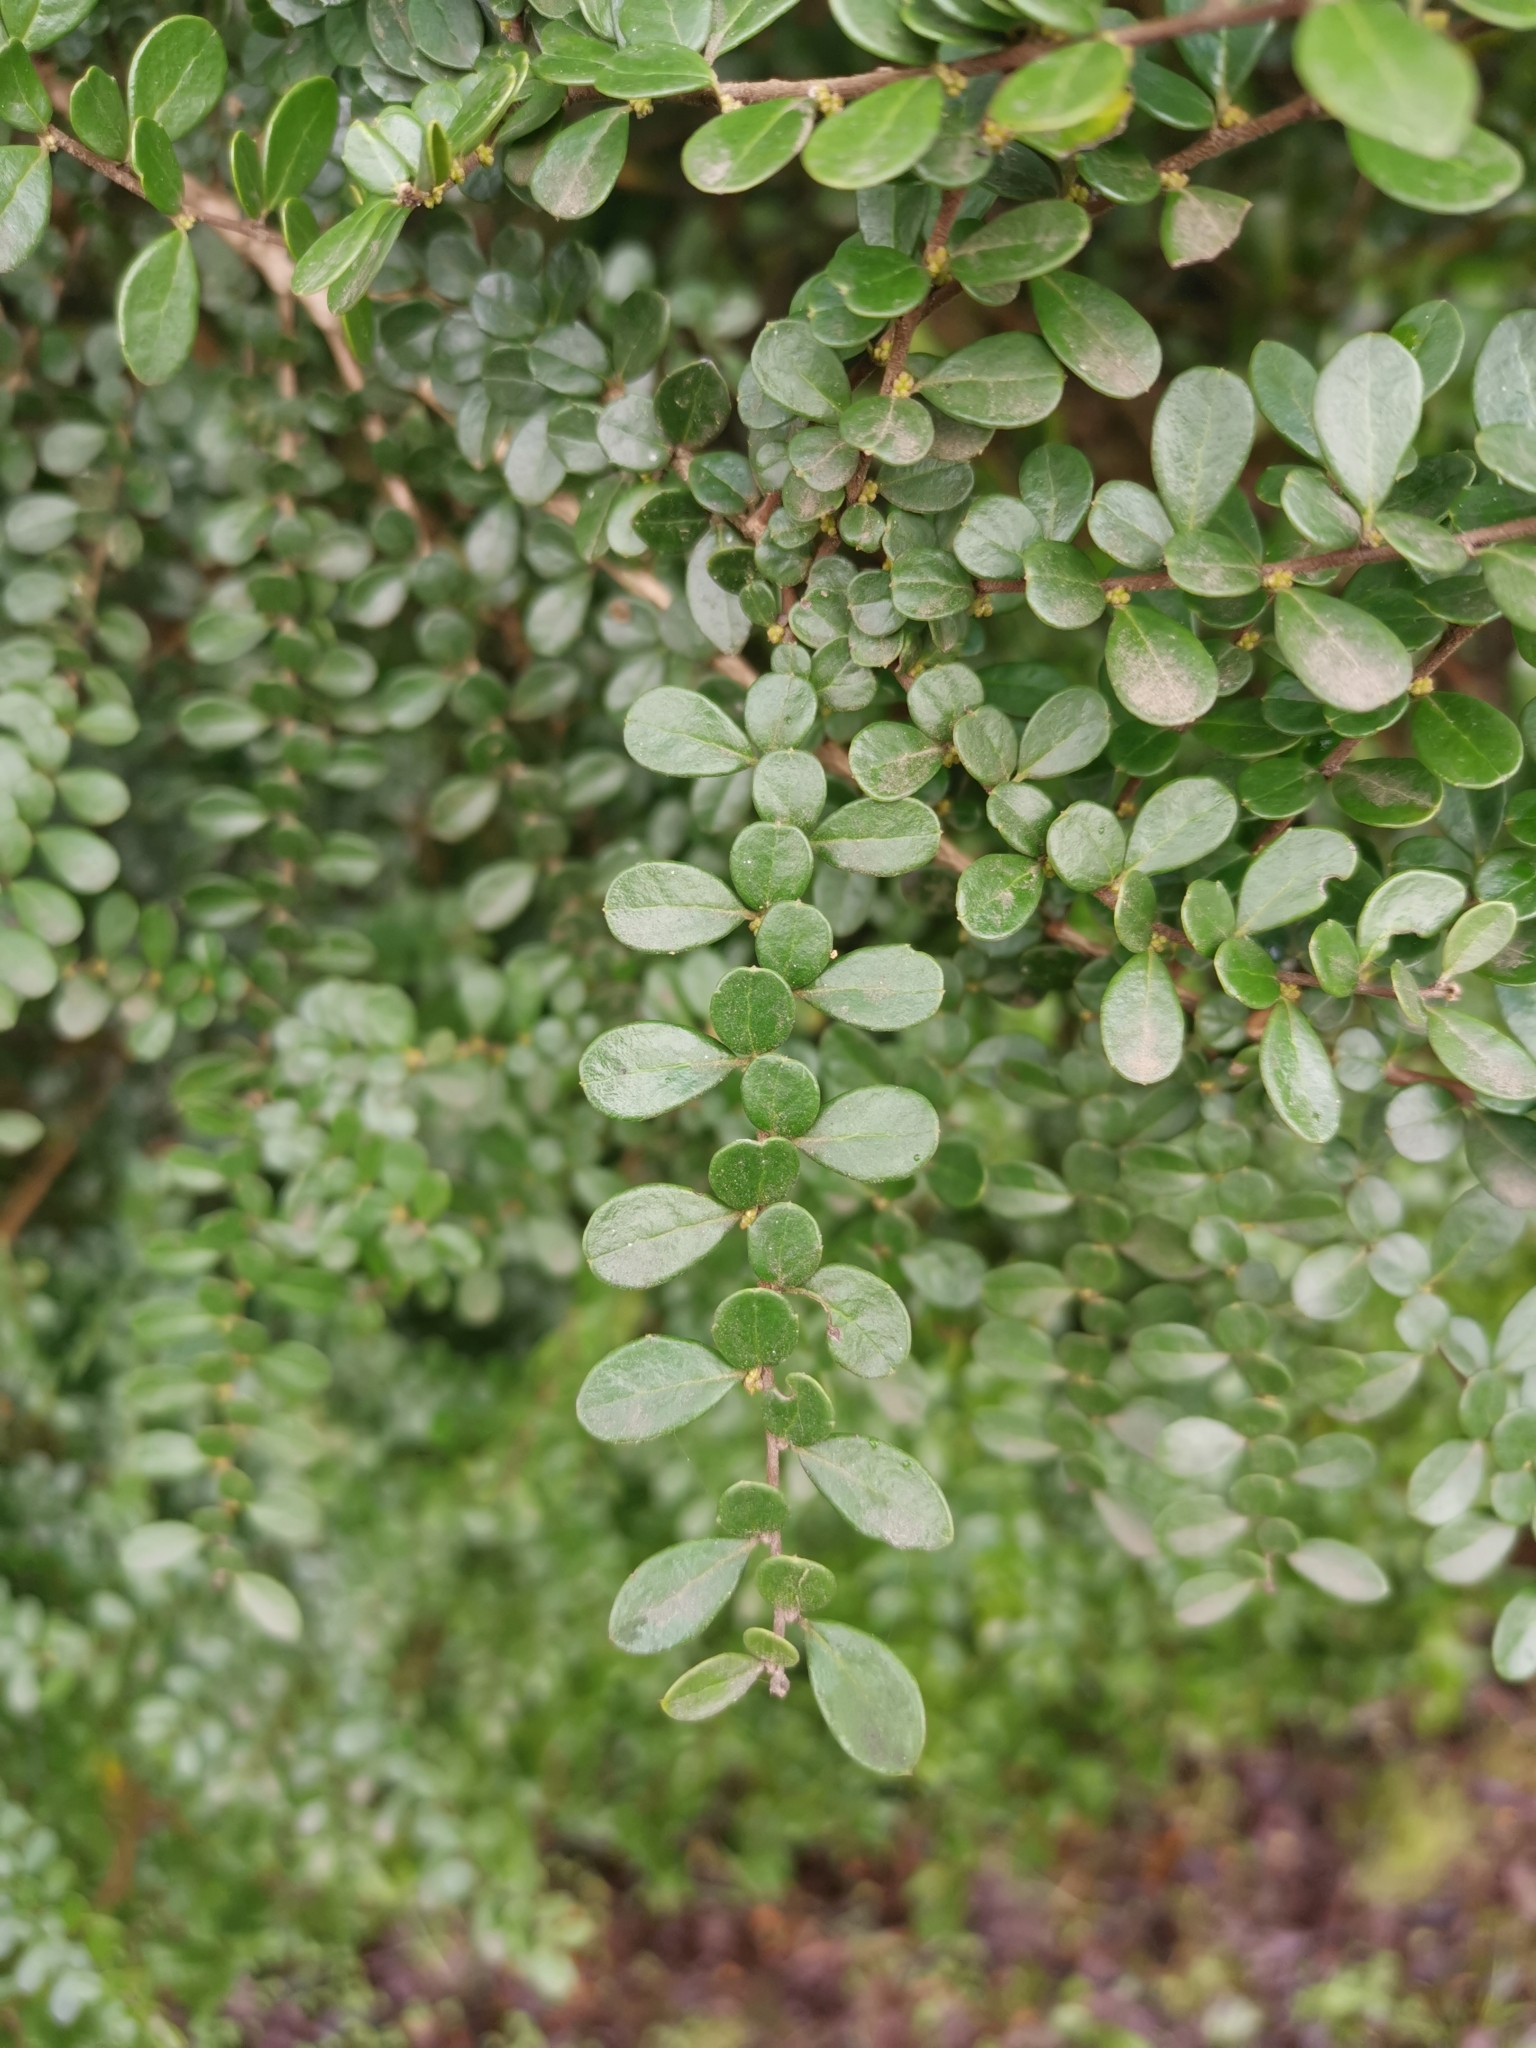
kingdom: Plantae
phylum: Tracheophyta
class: Magnoliopsida
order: Malpighiales
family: Salicaceae
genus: Azara
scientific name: Azara microphylla
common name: Box-leaf azara
